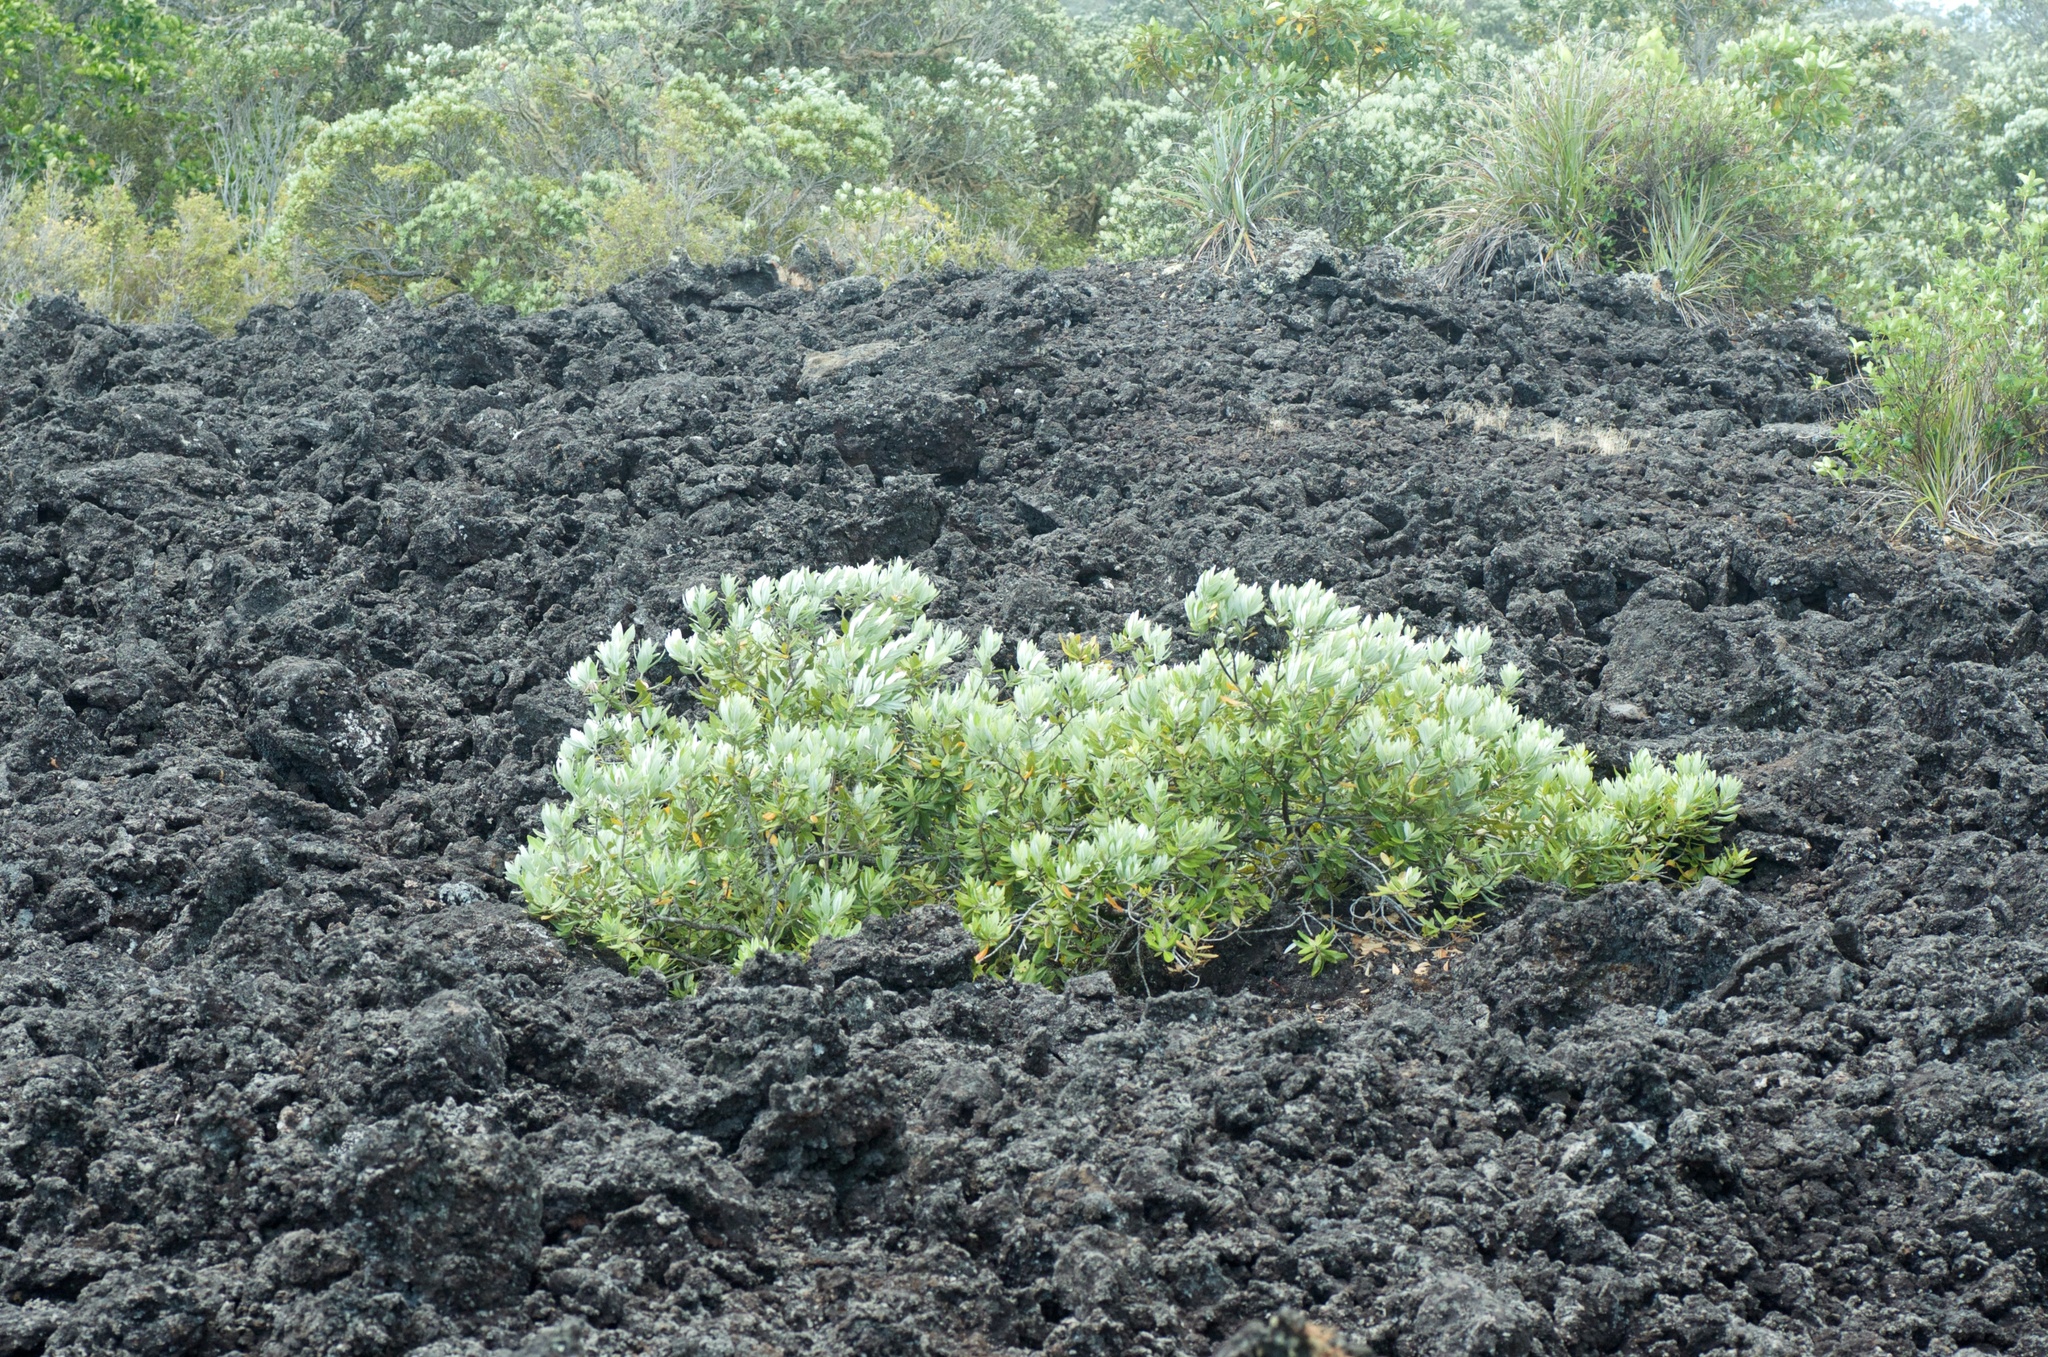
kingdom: Plantae
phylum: Tracheophyta
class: Magnoliopsida
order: Myrtales
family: Myrtaceae
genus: Metrosideros
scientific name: Metrosideros excelsa
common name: New zealand christmastree
